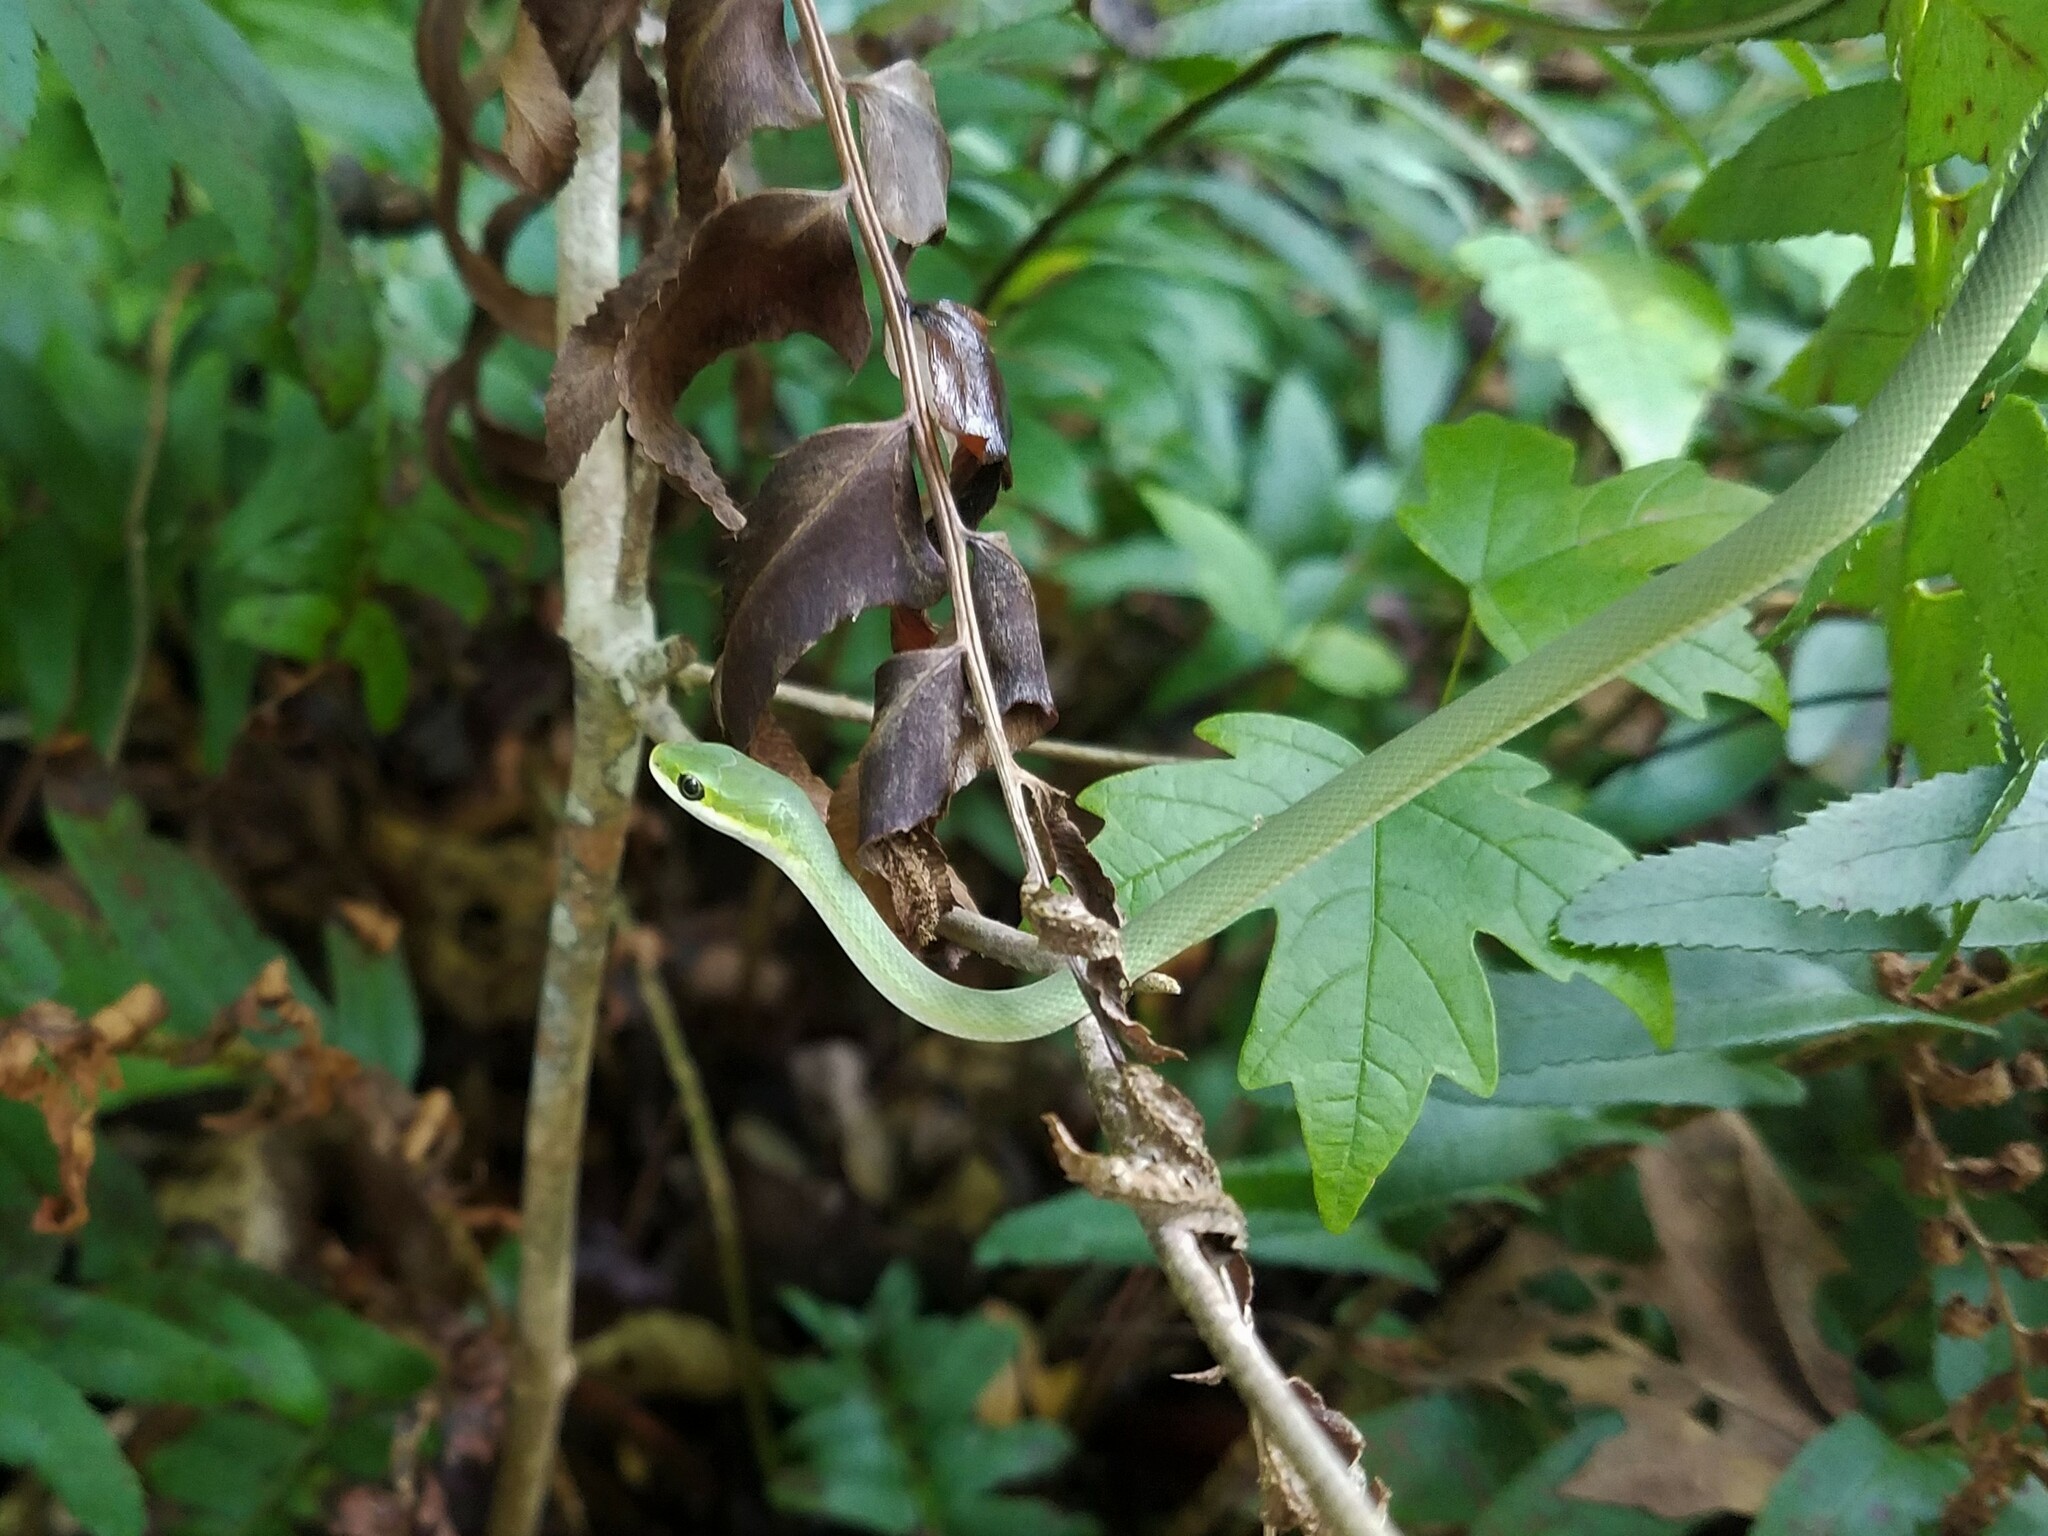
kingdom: Animalia
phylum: Chordata
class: Squamata
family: Colubridae
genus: Opheodrys
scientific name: Opheodrys aestivus
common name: Rough greensnake
